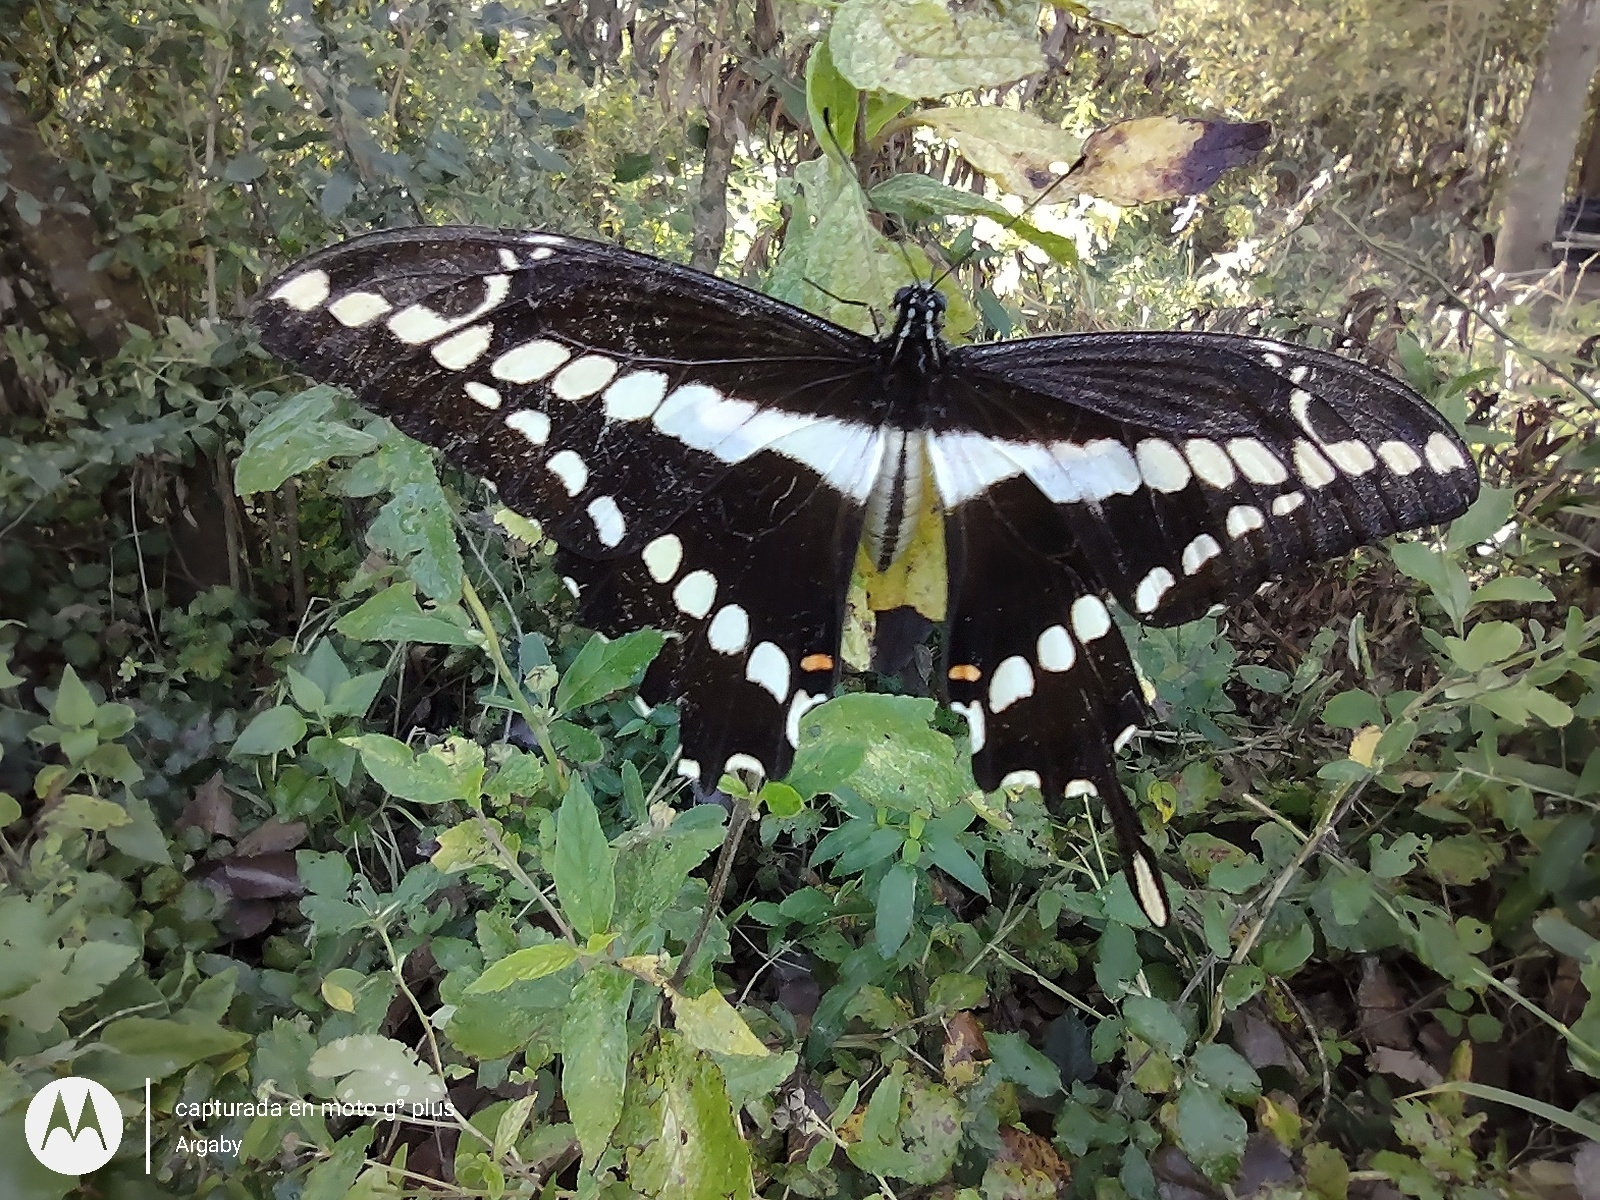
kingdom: Animalia
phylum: Arthropoda
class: Insecta
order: Lepidoptera
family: Papilionidae
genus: Papilio
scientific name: Papilio thoas
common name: King swallowtail
